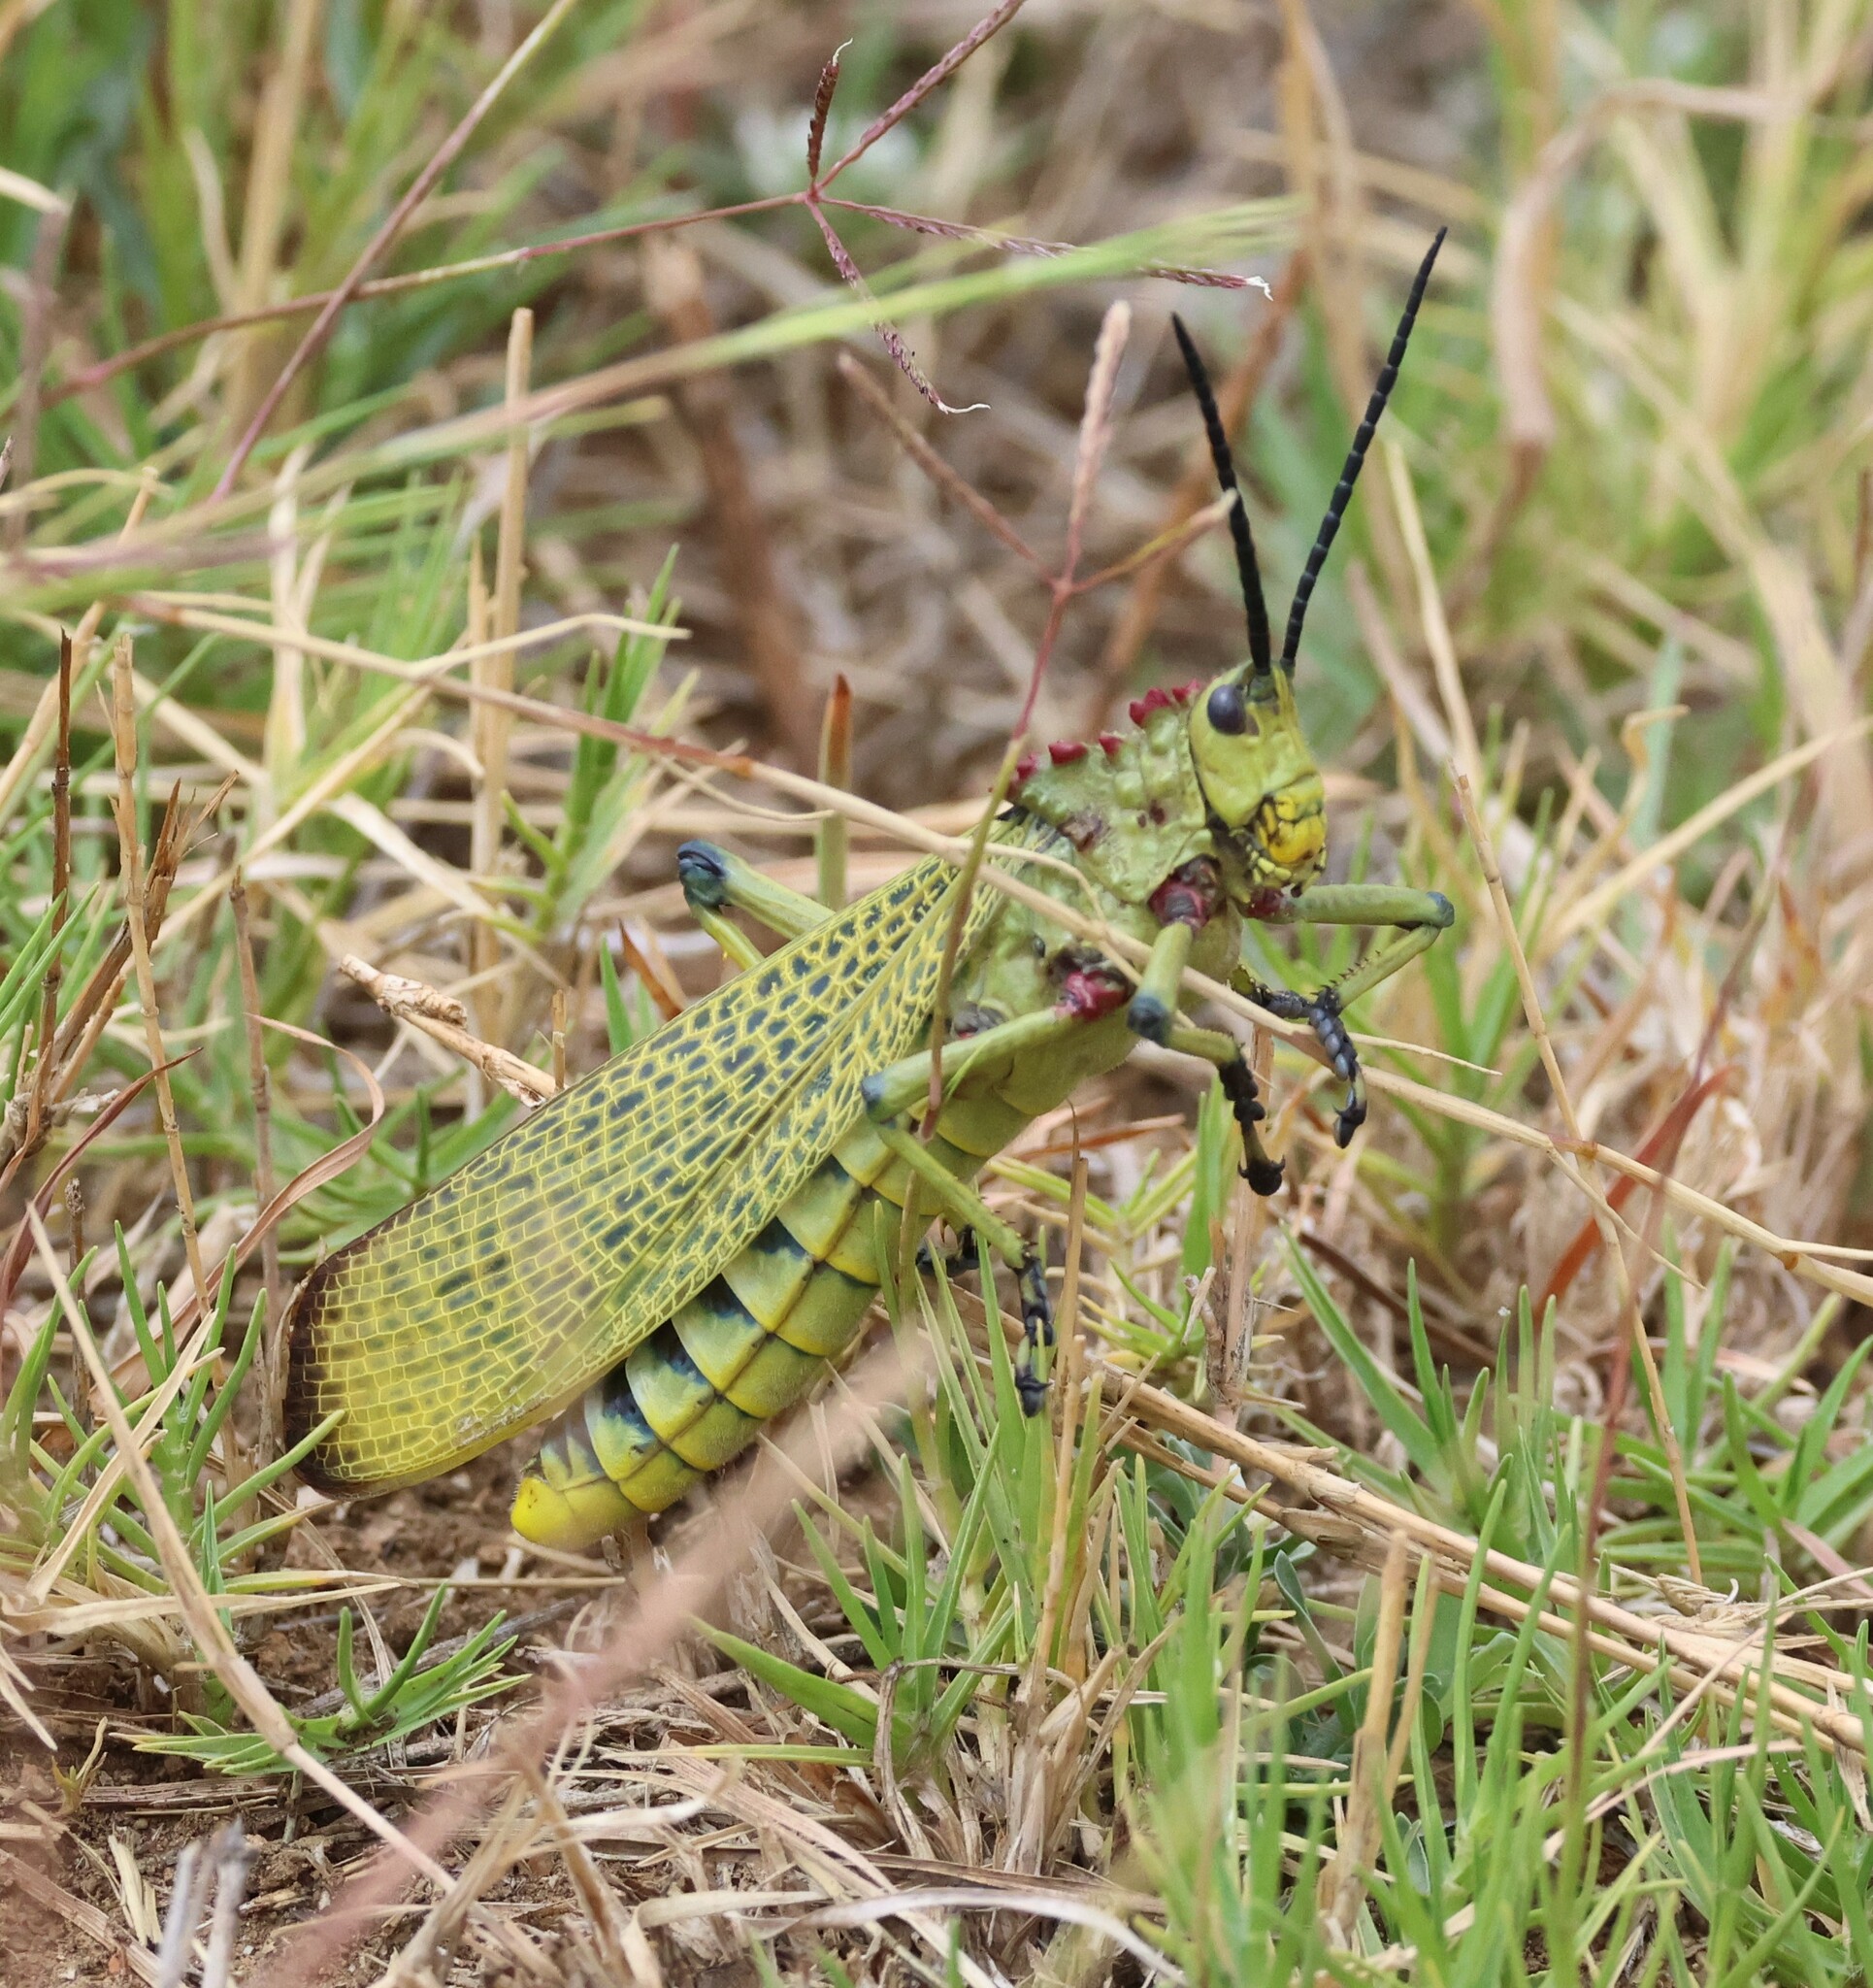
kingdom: Animalia
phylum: Arthropoda
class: Insecta
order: Orthoptera
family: Pyrgomorphidae
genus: Phymateus
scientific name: Phymateus viridipes
